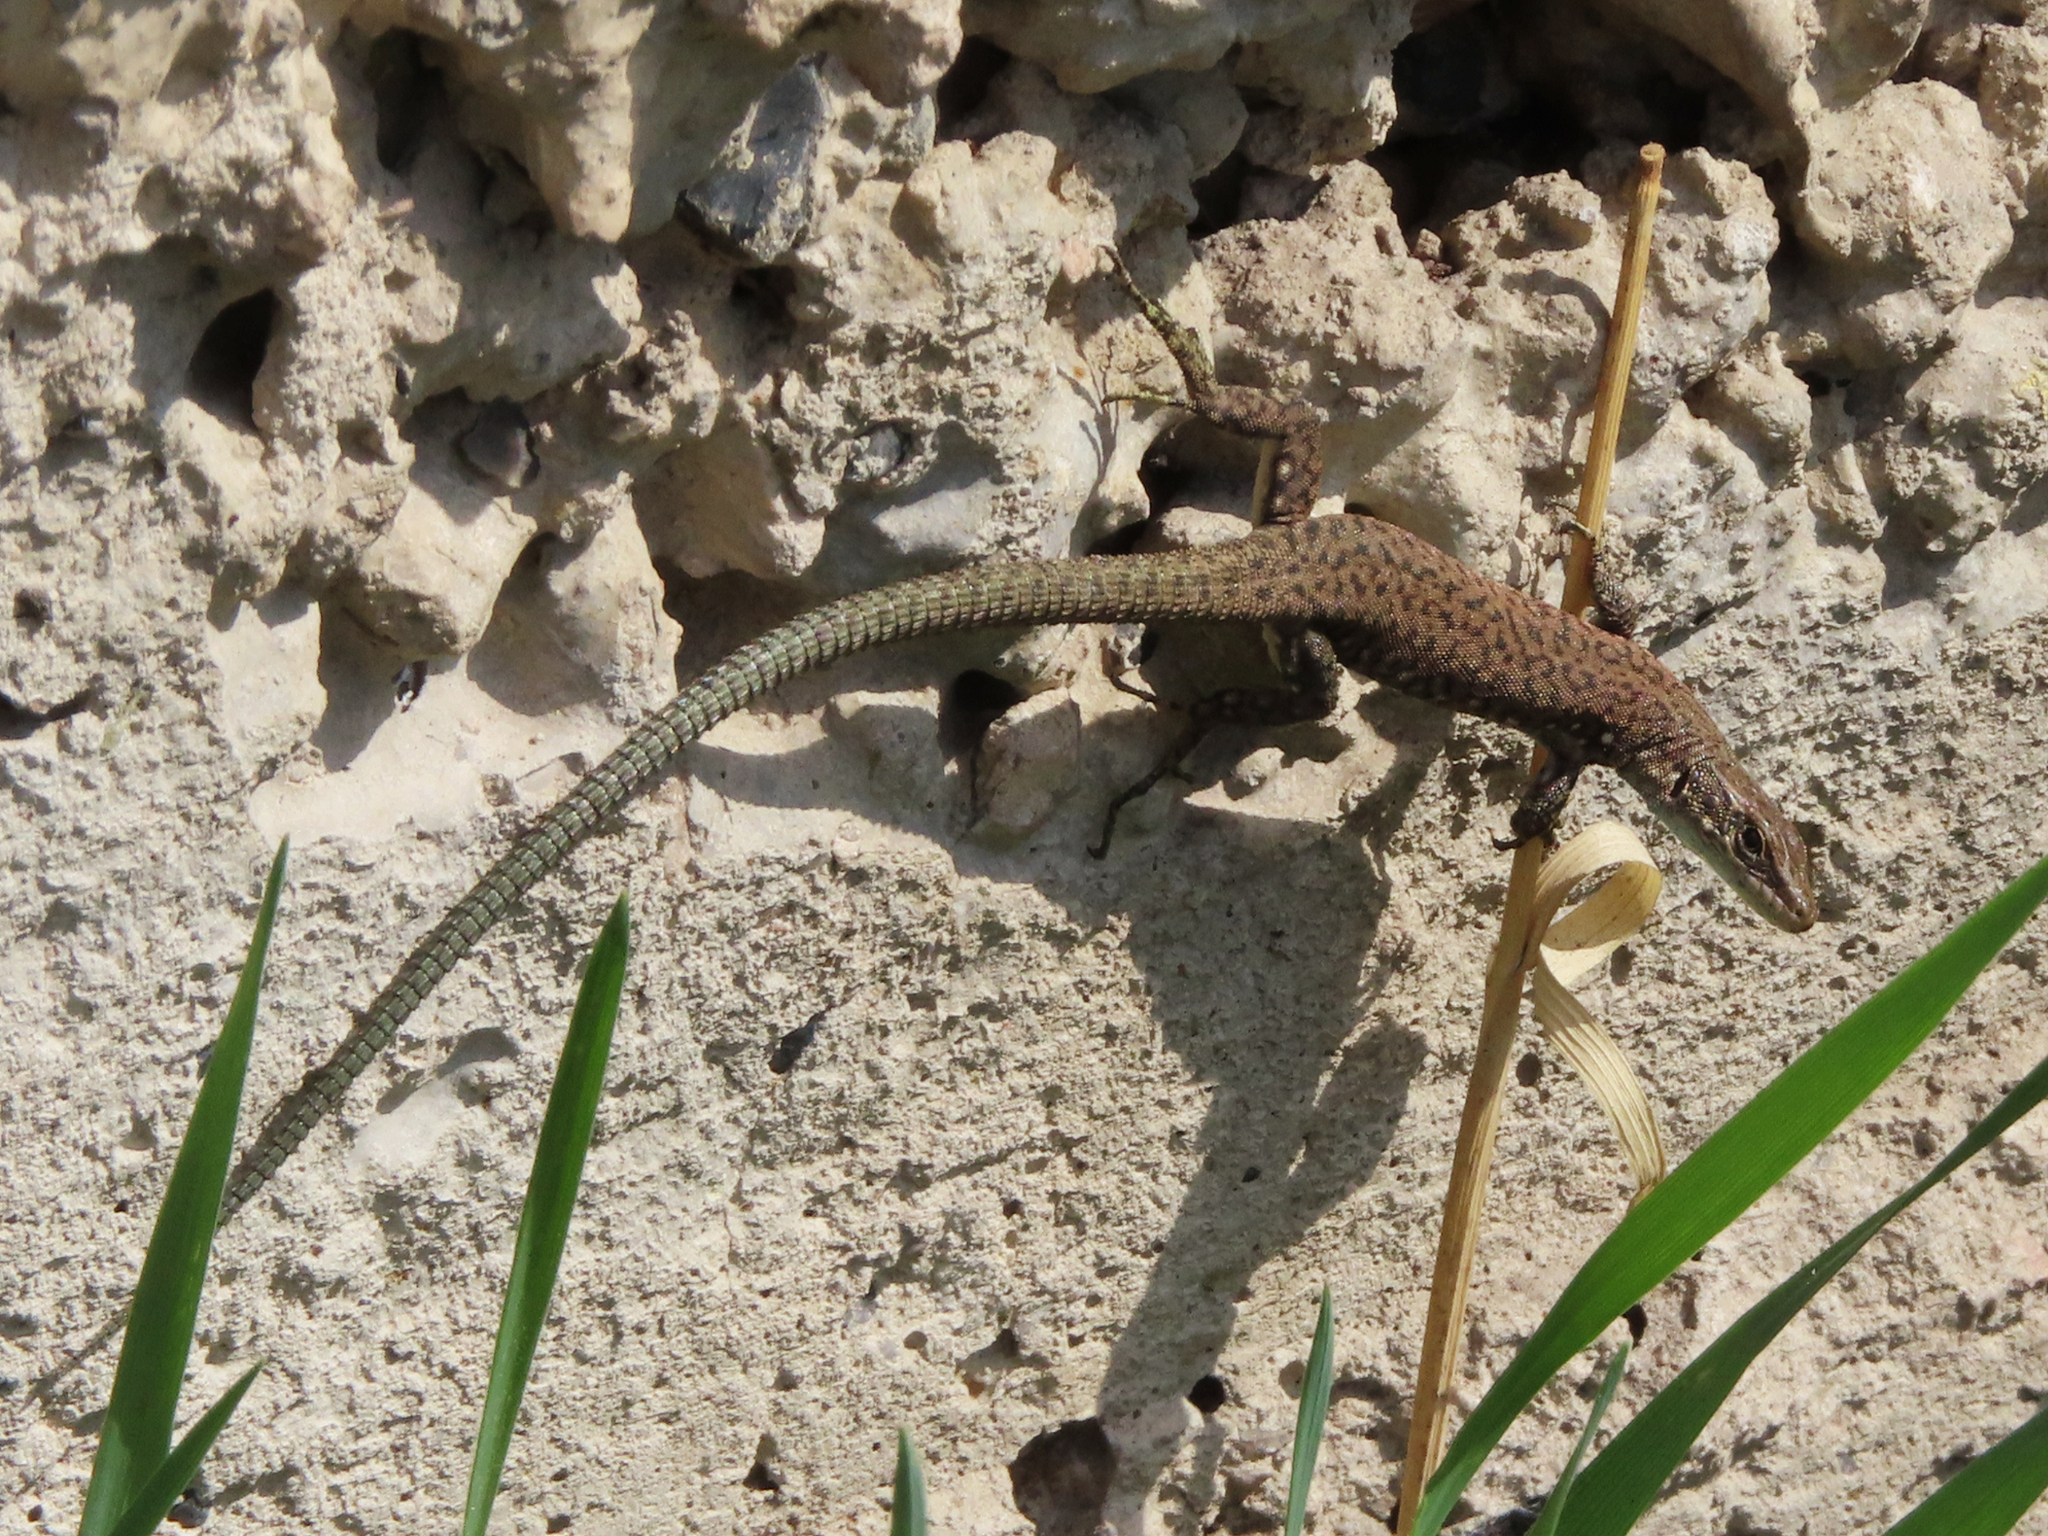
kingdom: Animalia
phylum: Chordata
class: Squamata
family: Lacertidae
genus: Darevskia
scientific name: Darevskia
